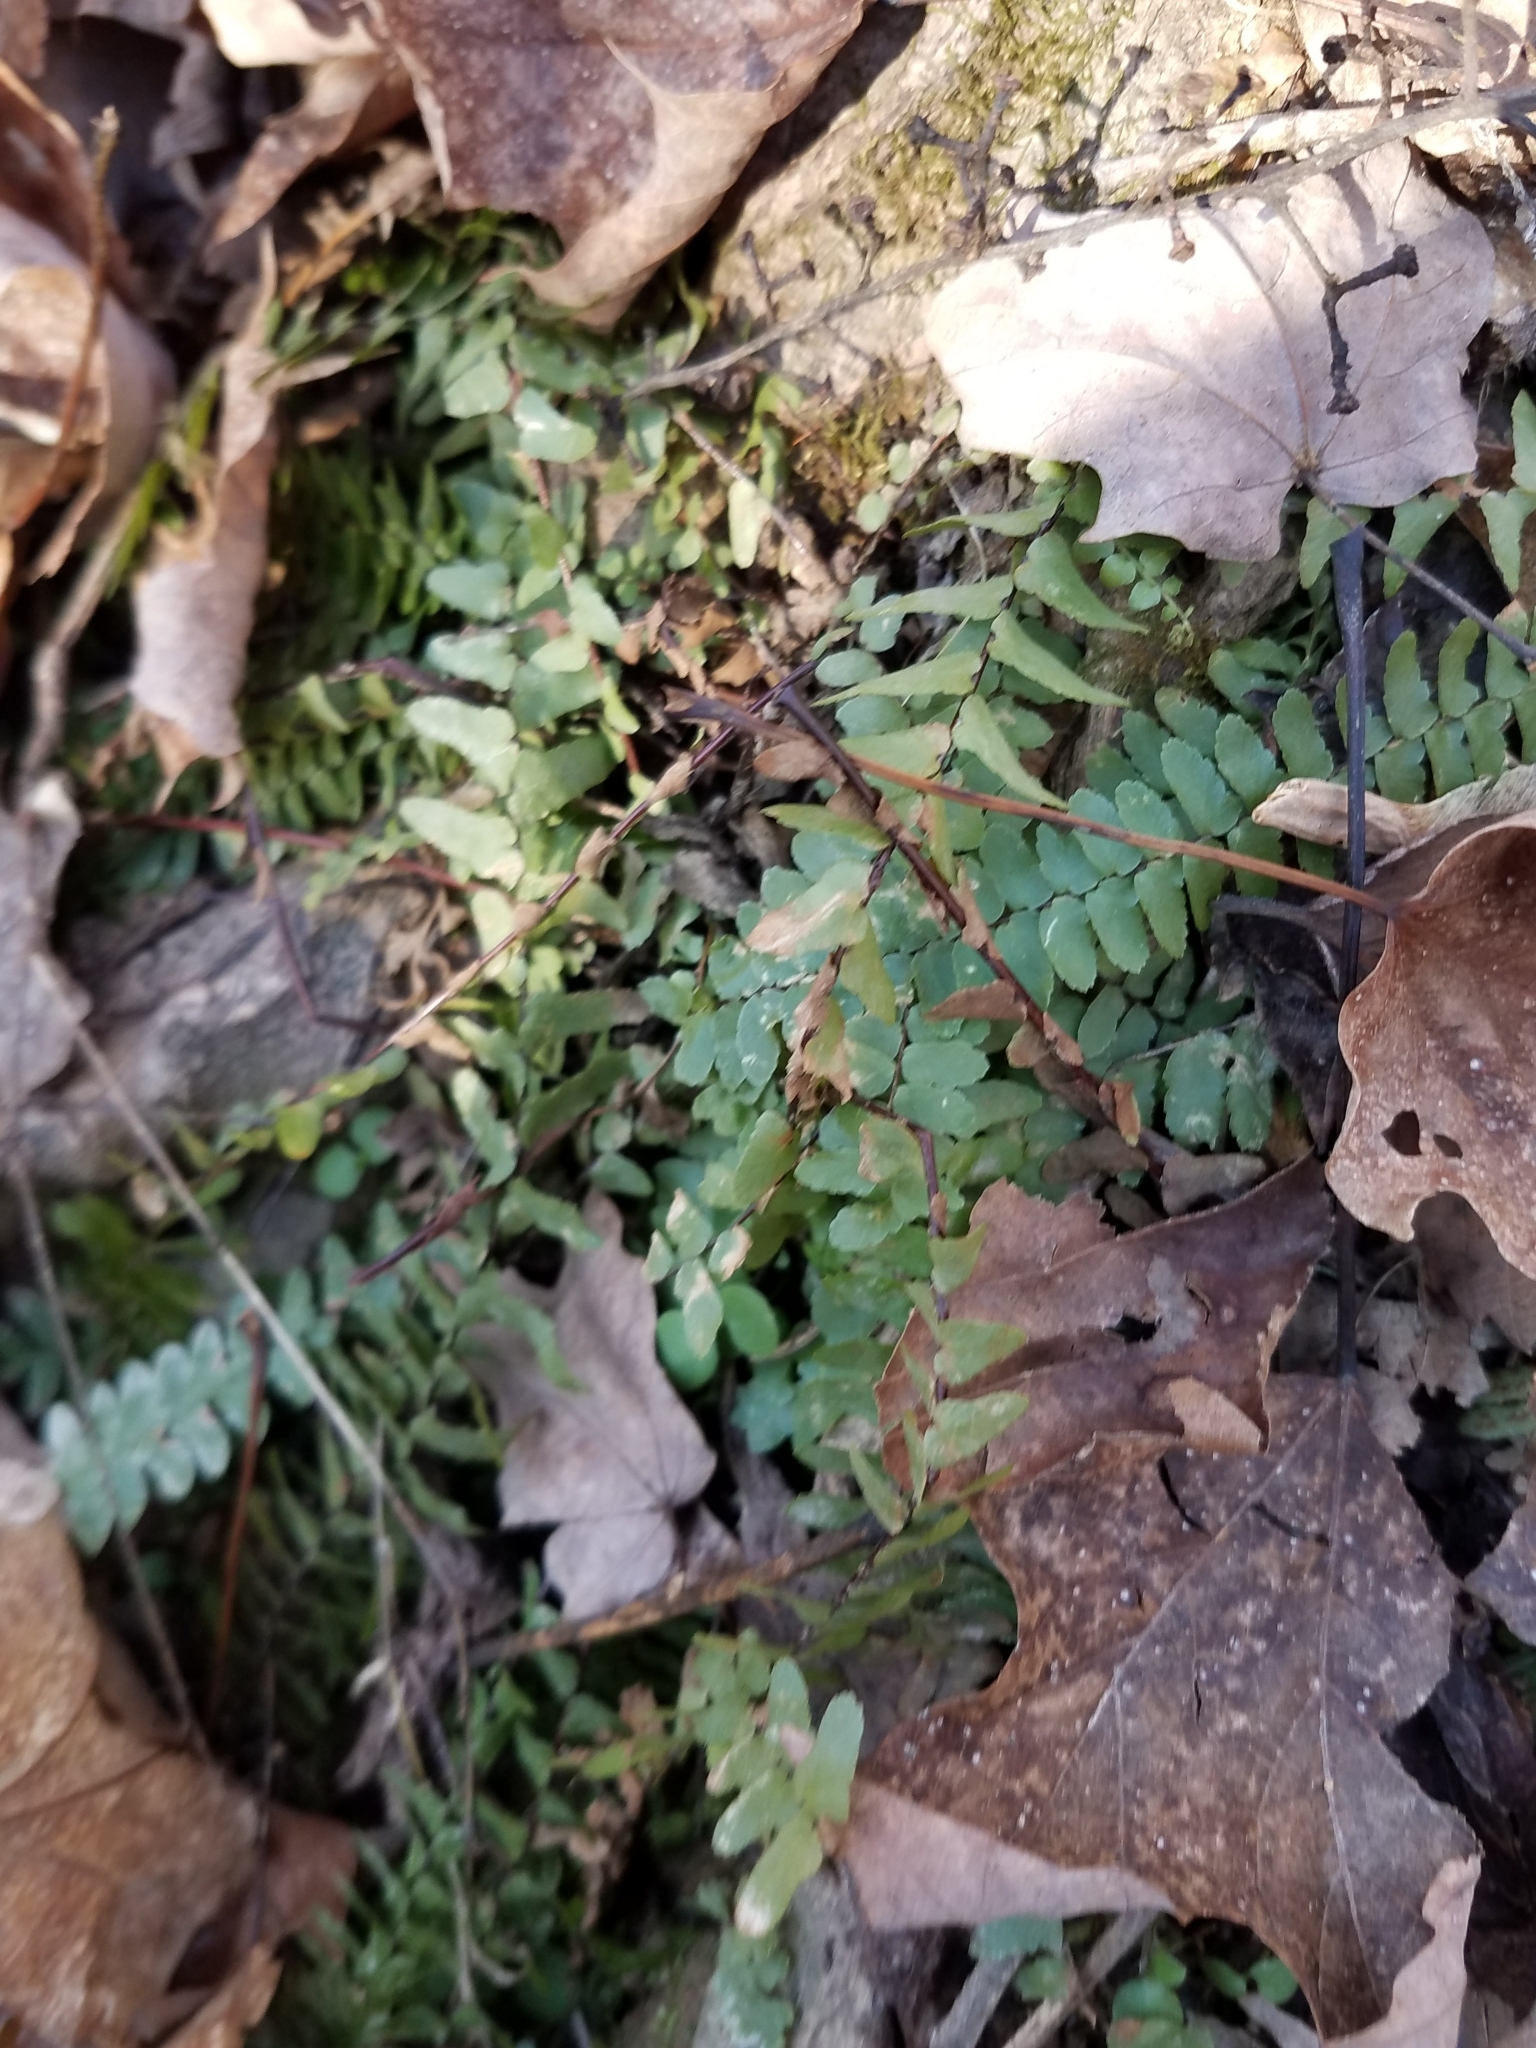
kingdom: Plantae
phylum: Tracheophyta
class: Polypodiopsida
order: Polypodiales
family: Aspleniaceae
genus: Asplenium
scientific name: Asplenium platyneuron
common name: Ebony spleenwort
